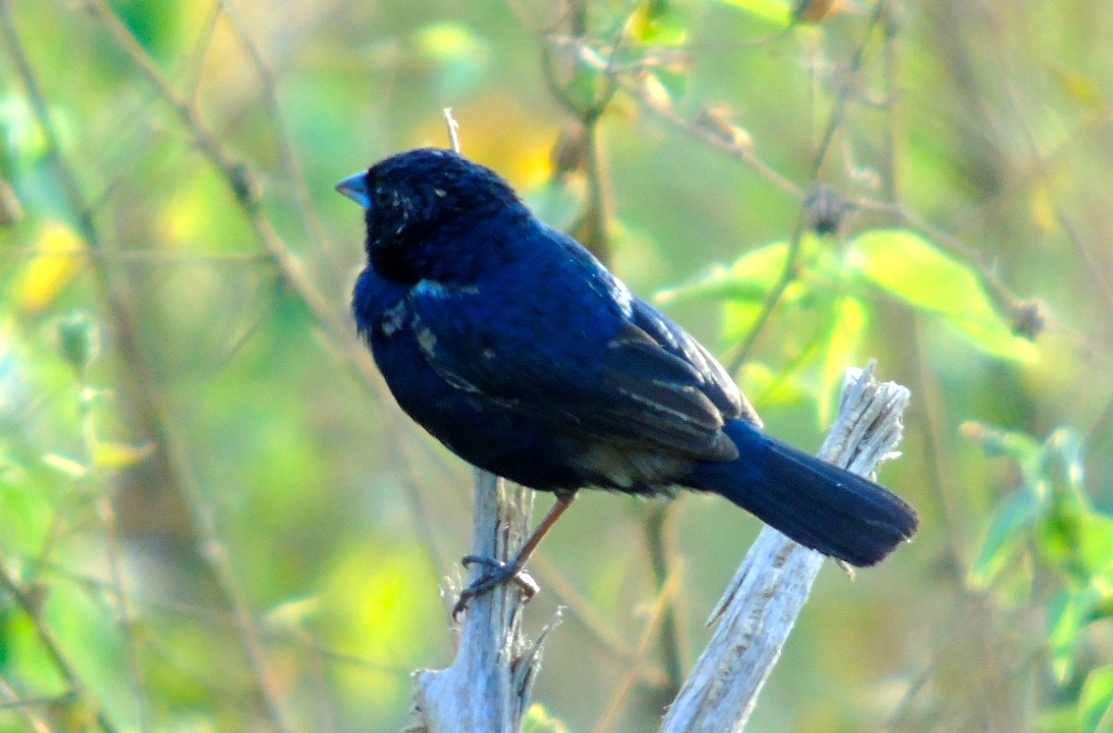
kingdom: Animalia
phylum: Chordata
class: Aves
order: Passeriformes
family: Thraupidae
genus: Volatinia
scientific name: Volatinia jacarina
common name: Blue-black grassquit
